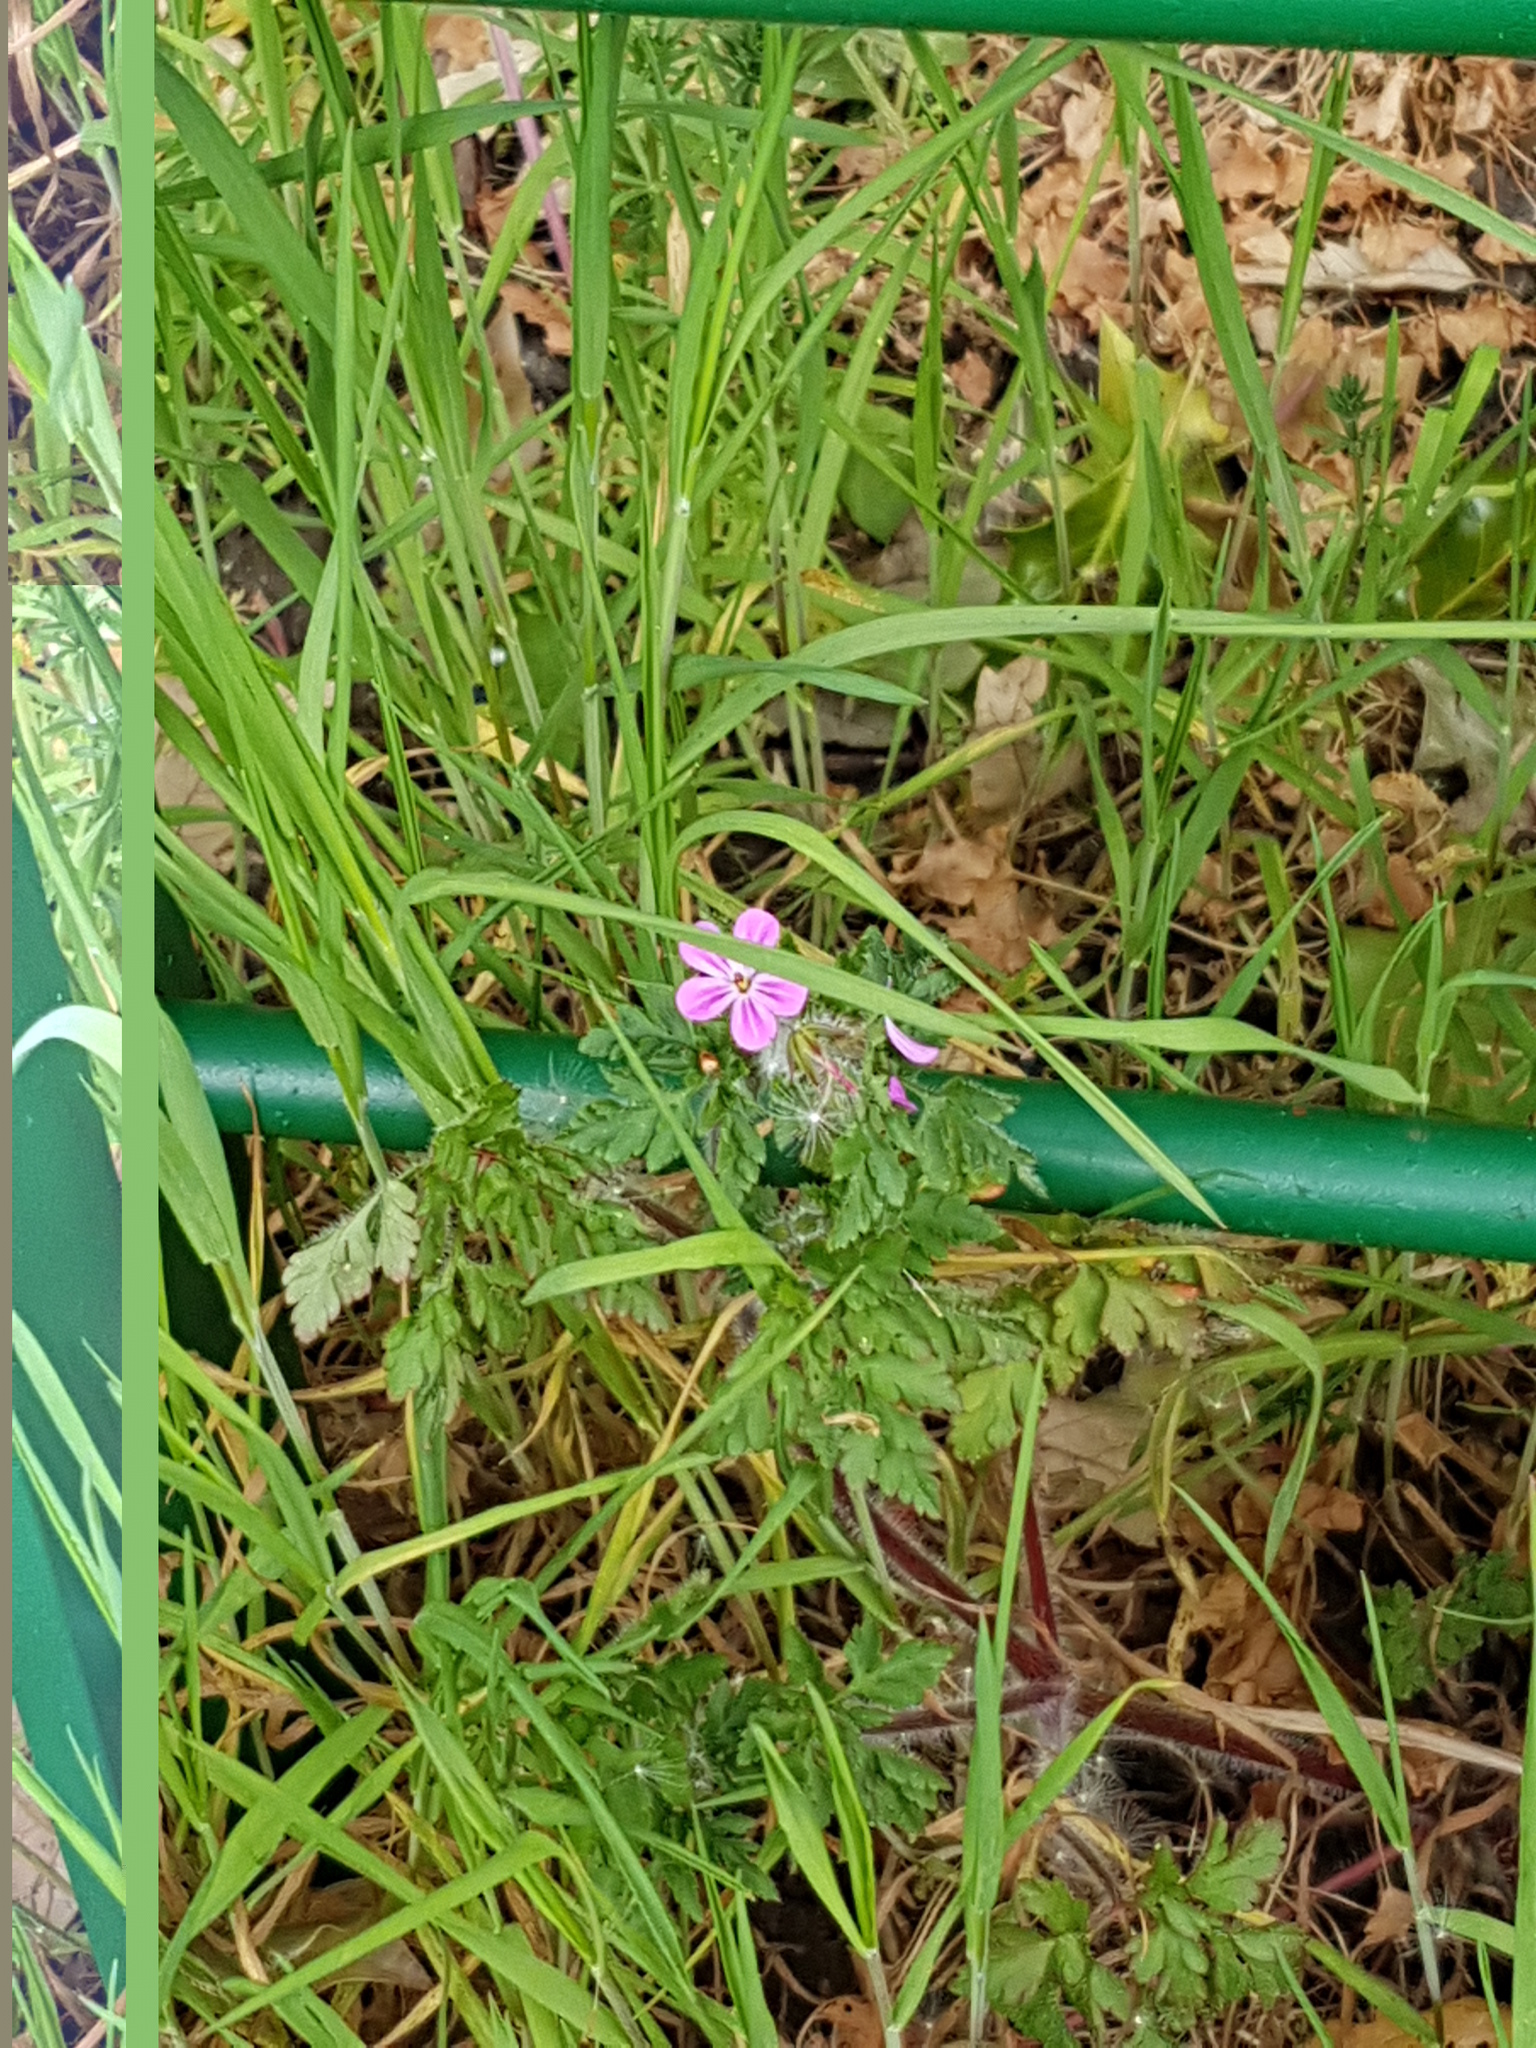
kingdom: Plantae
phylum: Tracheophyta
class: Magnoliopsida
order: Geraniales
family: Geraniaceae
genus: Geranium
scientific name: Geranium robertianum
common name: Herb-robert
